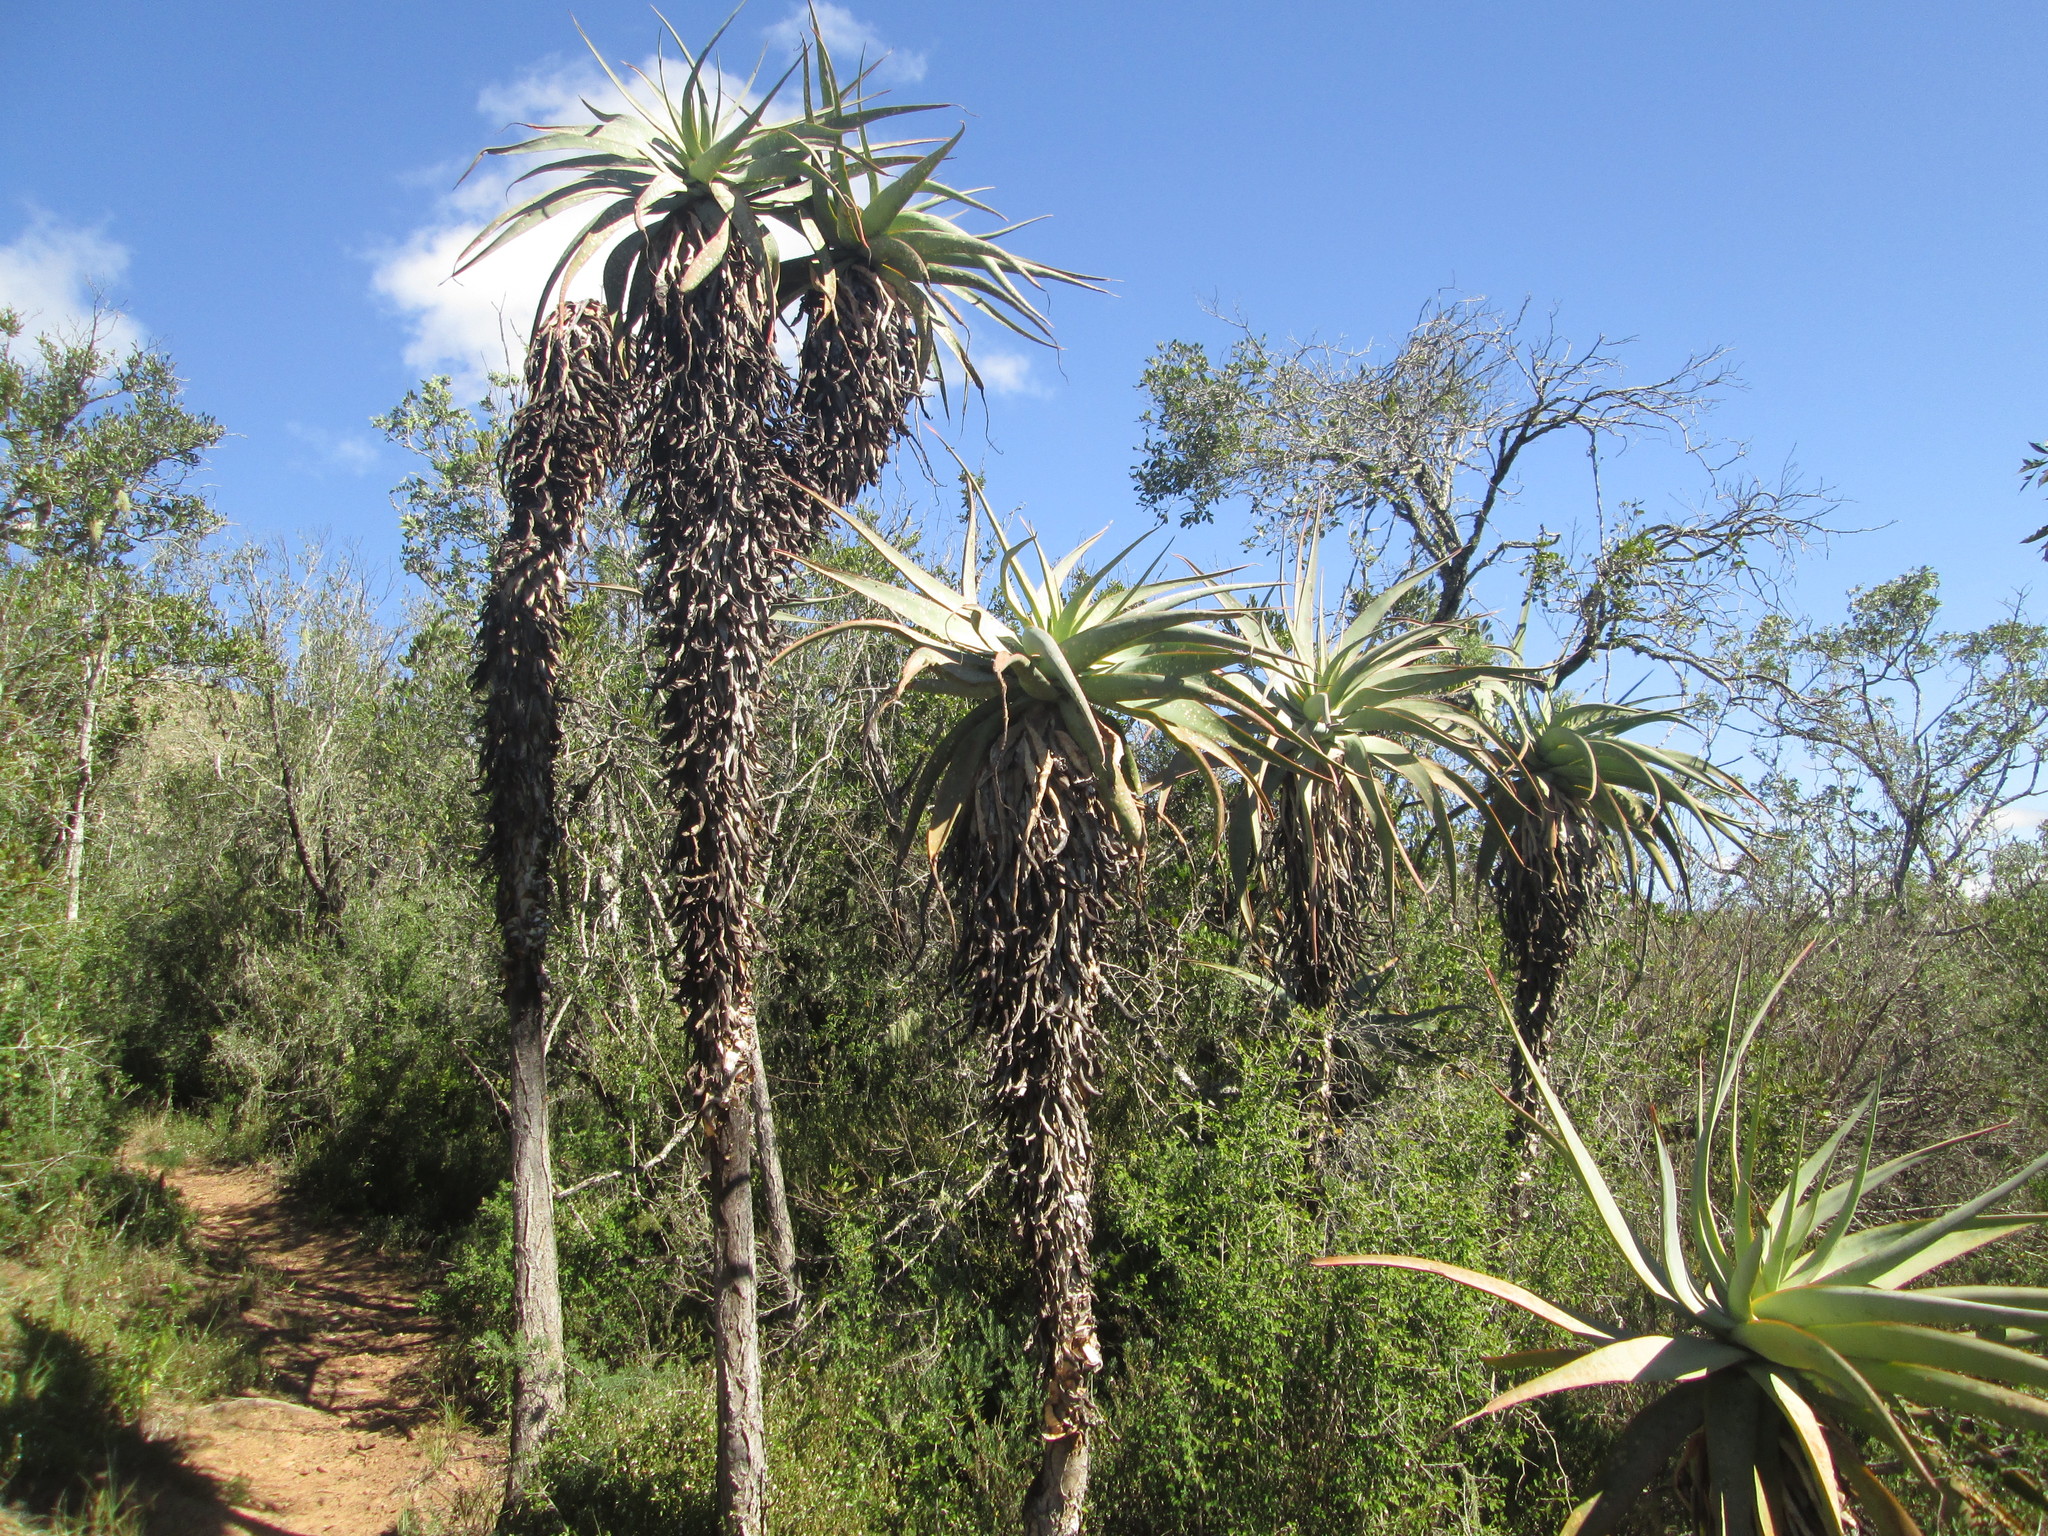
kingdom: Plantae
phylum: Tracheophyta
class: Liliopsida
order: Asparagales
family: Asphodelaceae
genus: Aloe
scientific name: Aloe ferox
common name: Bitter aloe
